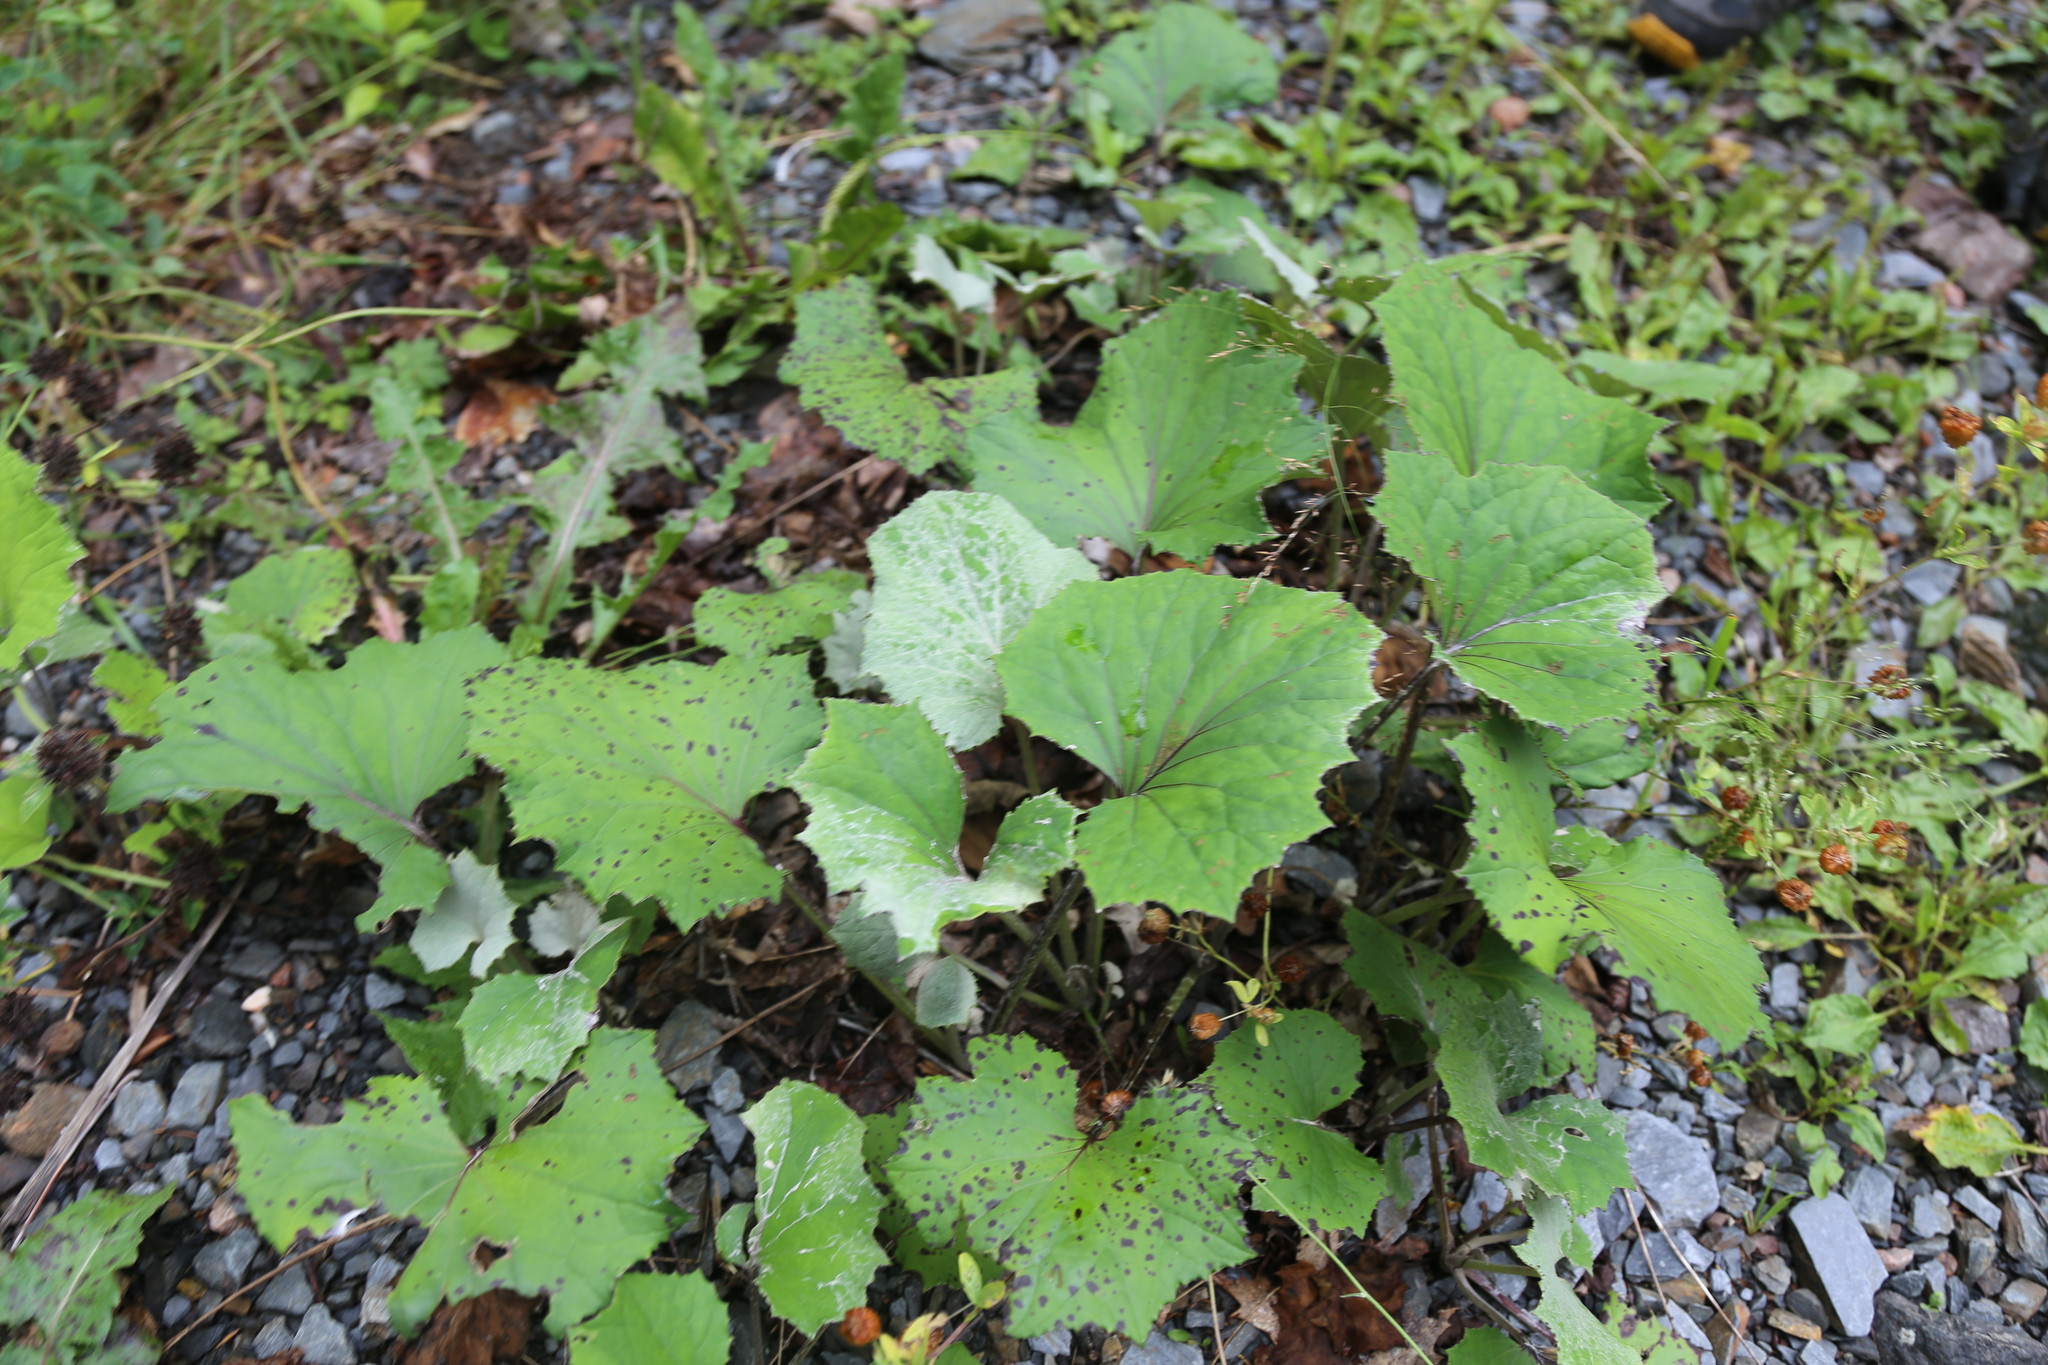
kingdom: Plantae
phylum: Tracheophyta
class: Magnoliopsida
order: Asterales
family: Asteraceae
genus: Tussilago
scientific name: Tussilago farfara
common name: Coltsfoot
